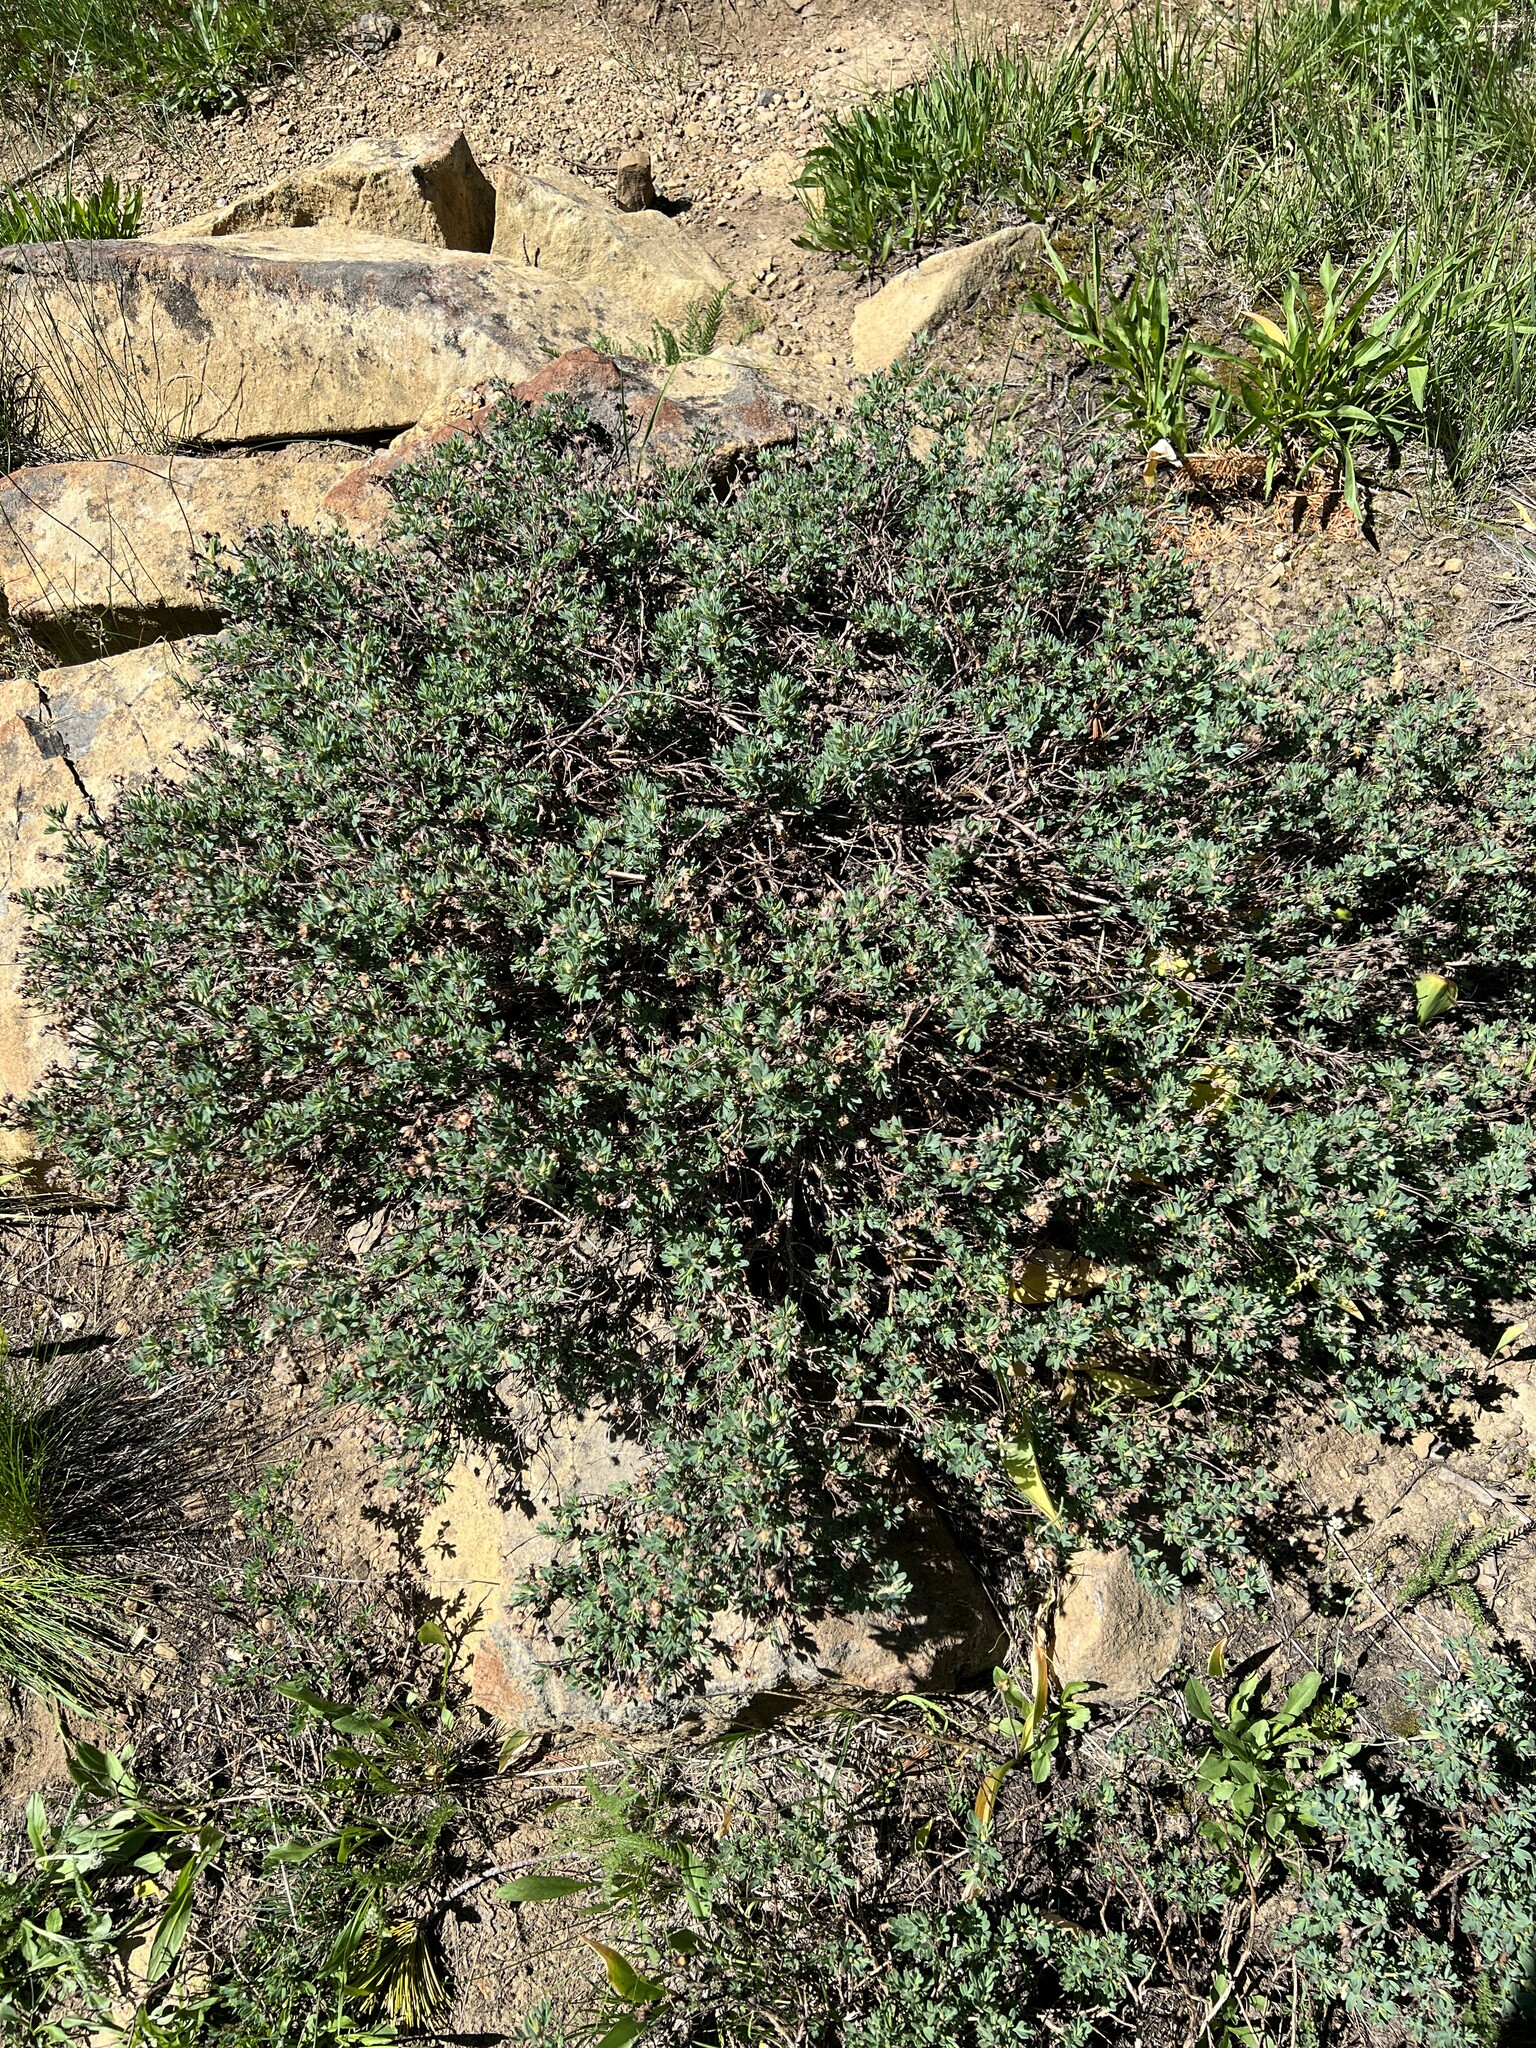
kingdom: Plantae
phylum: Tracheophyta
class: Magnoliopsida
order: Rosales
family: Rosaceae
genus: Dasiphora
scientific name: Dasiphora fruticosa
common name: Shrubby cinquefoil
